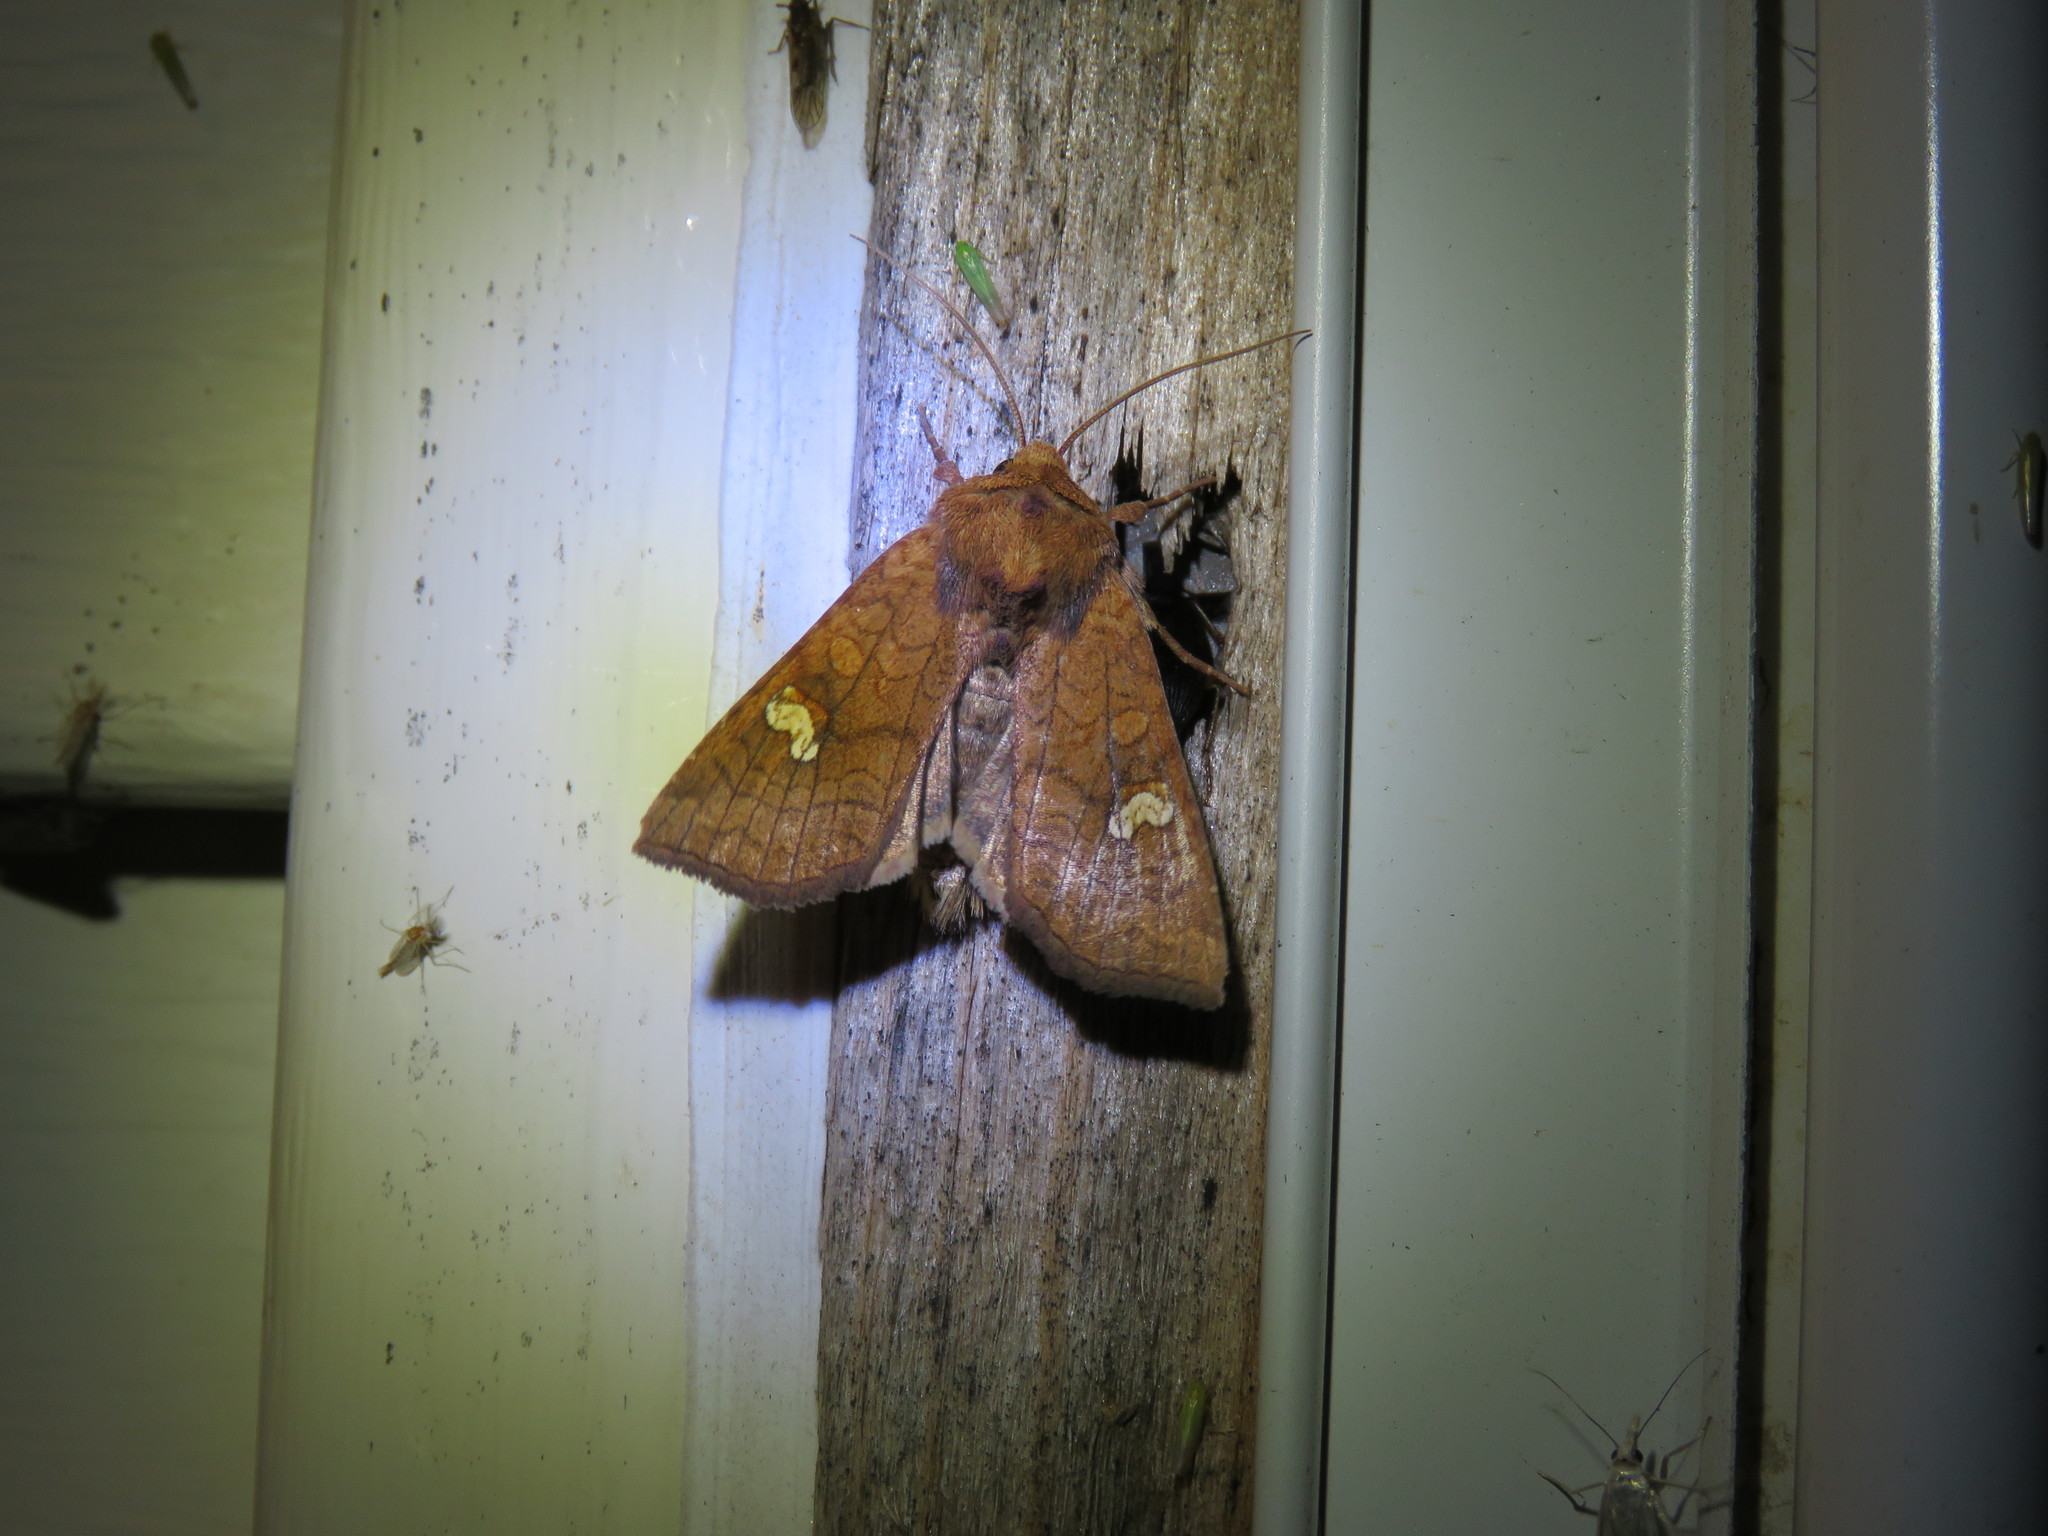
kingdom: Animalia
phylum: Arthropoda
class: Insecta
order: Lepidoptera
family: Noctuidae
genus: Amphipoea
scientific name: Amphipoea
